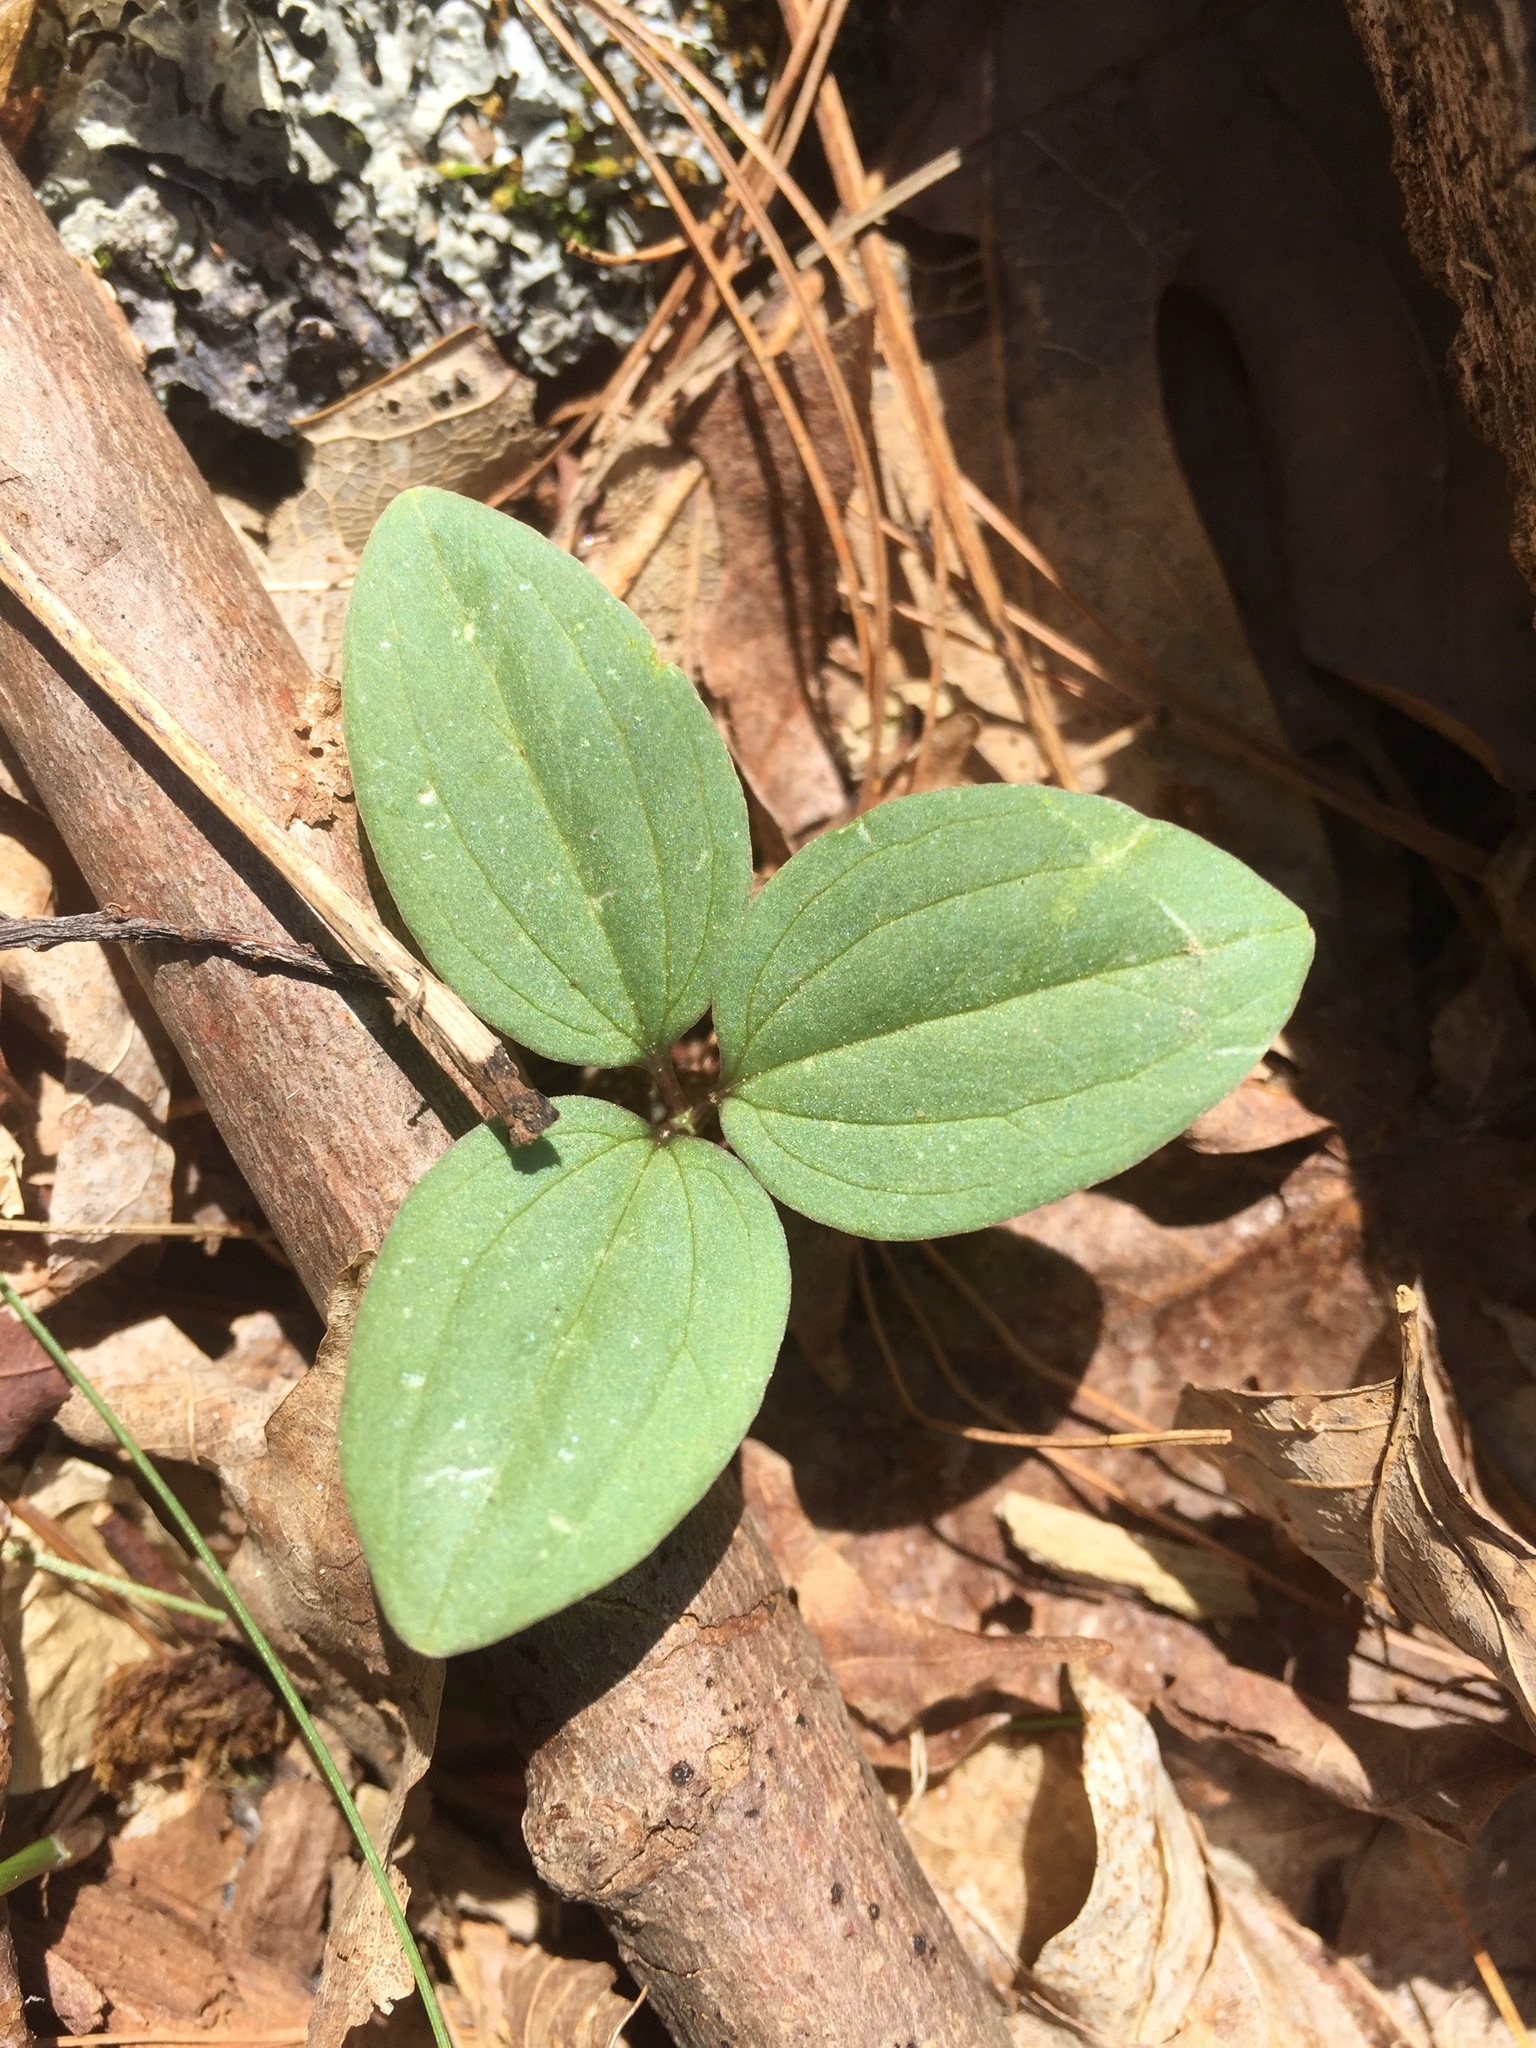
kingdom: Plantae
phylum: Tracheophyta
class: Liliopsida
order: Liliales
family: Melanthiaceae
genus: Trillium
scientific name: Trillium nivale
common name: Dwarf white trillium
